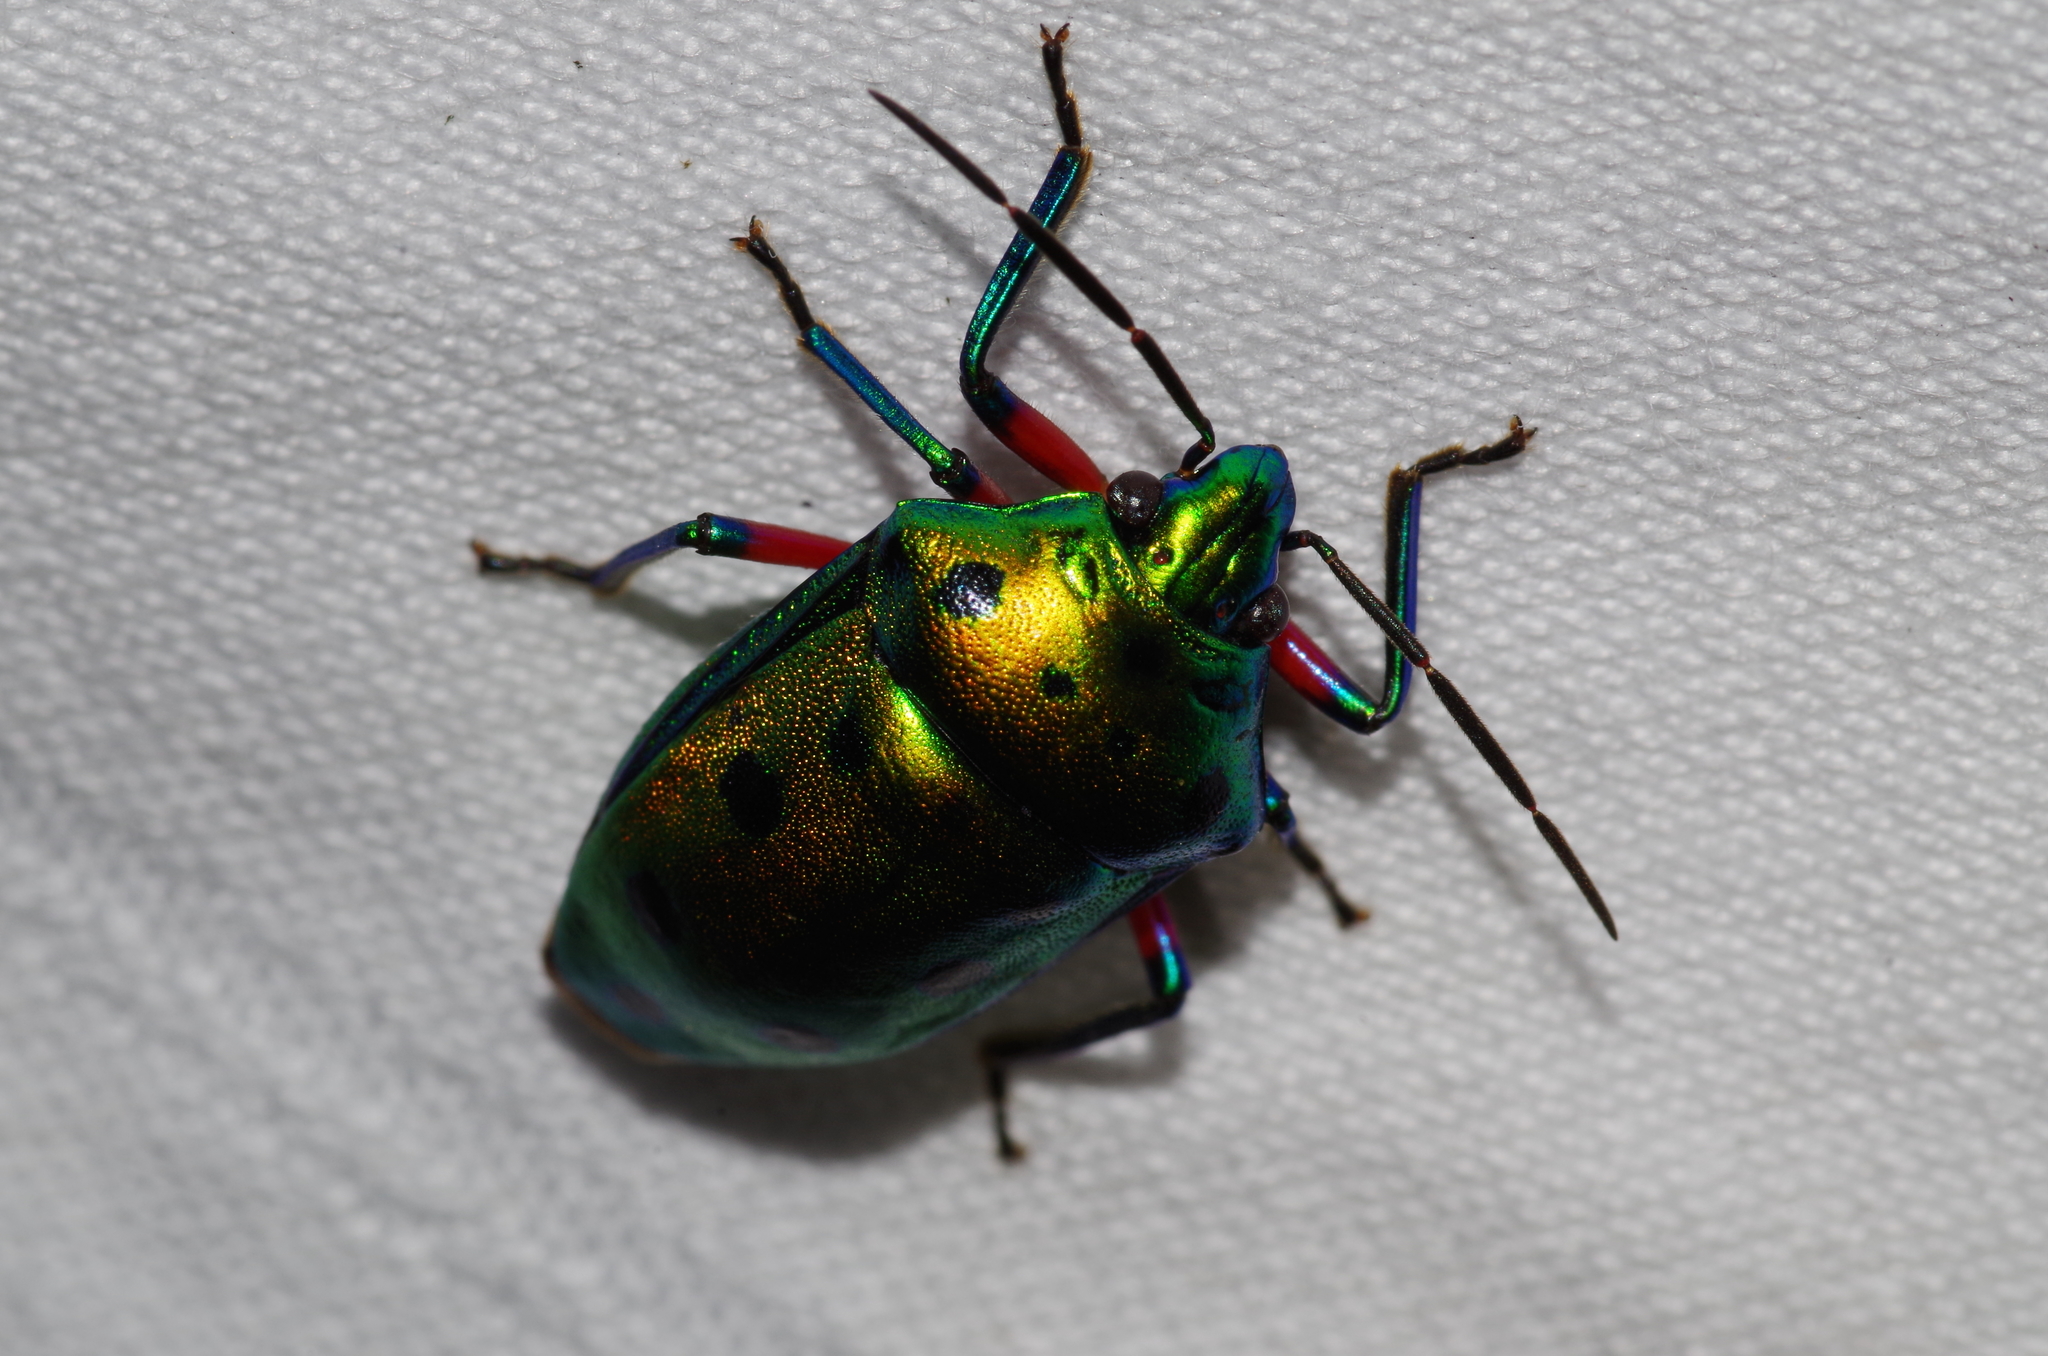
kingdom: Animalia
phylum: Arthropoda
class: Insecta
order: Hemiptera
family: Scutelleridae
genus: Calliphara
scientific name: Calliphara excellens
